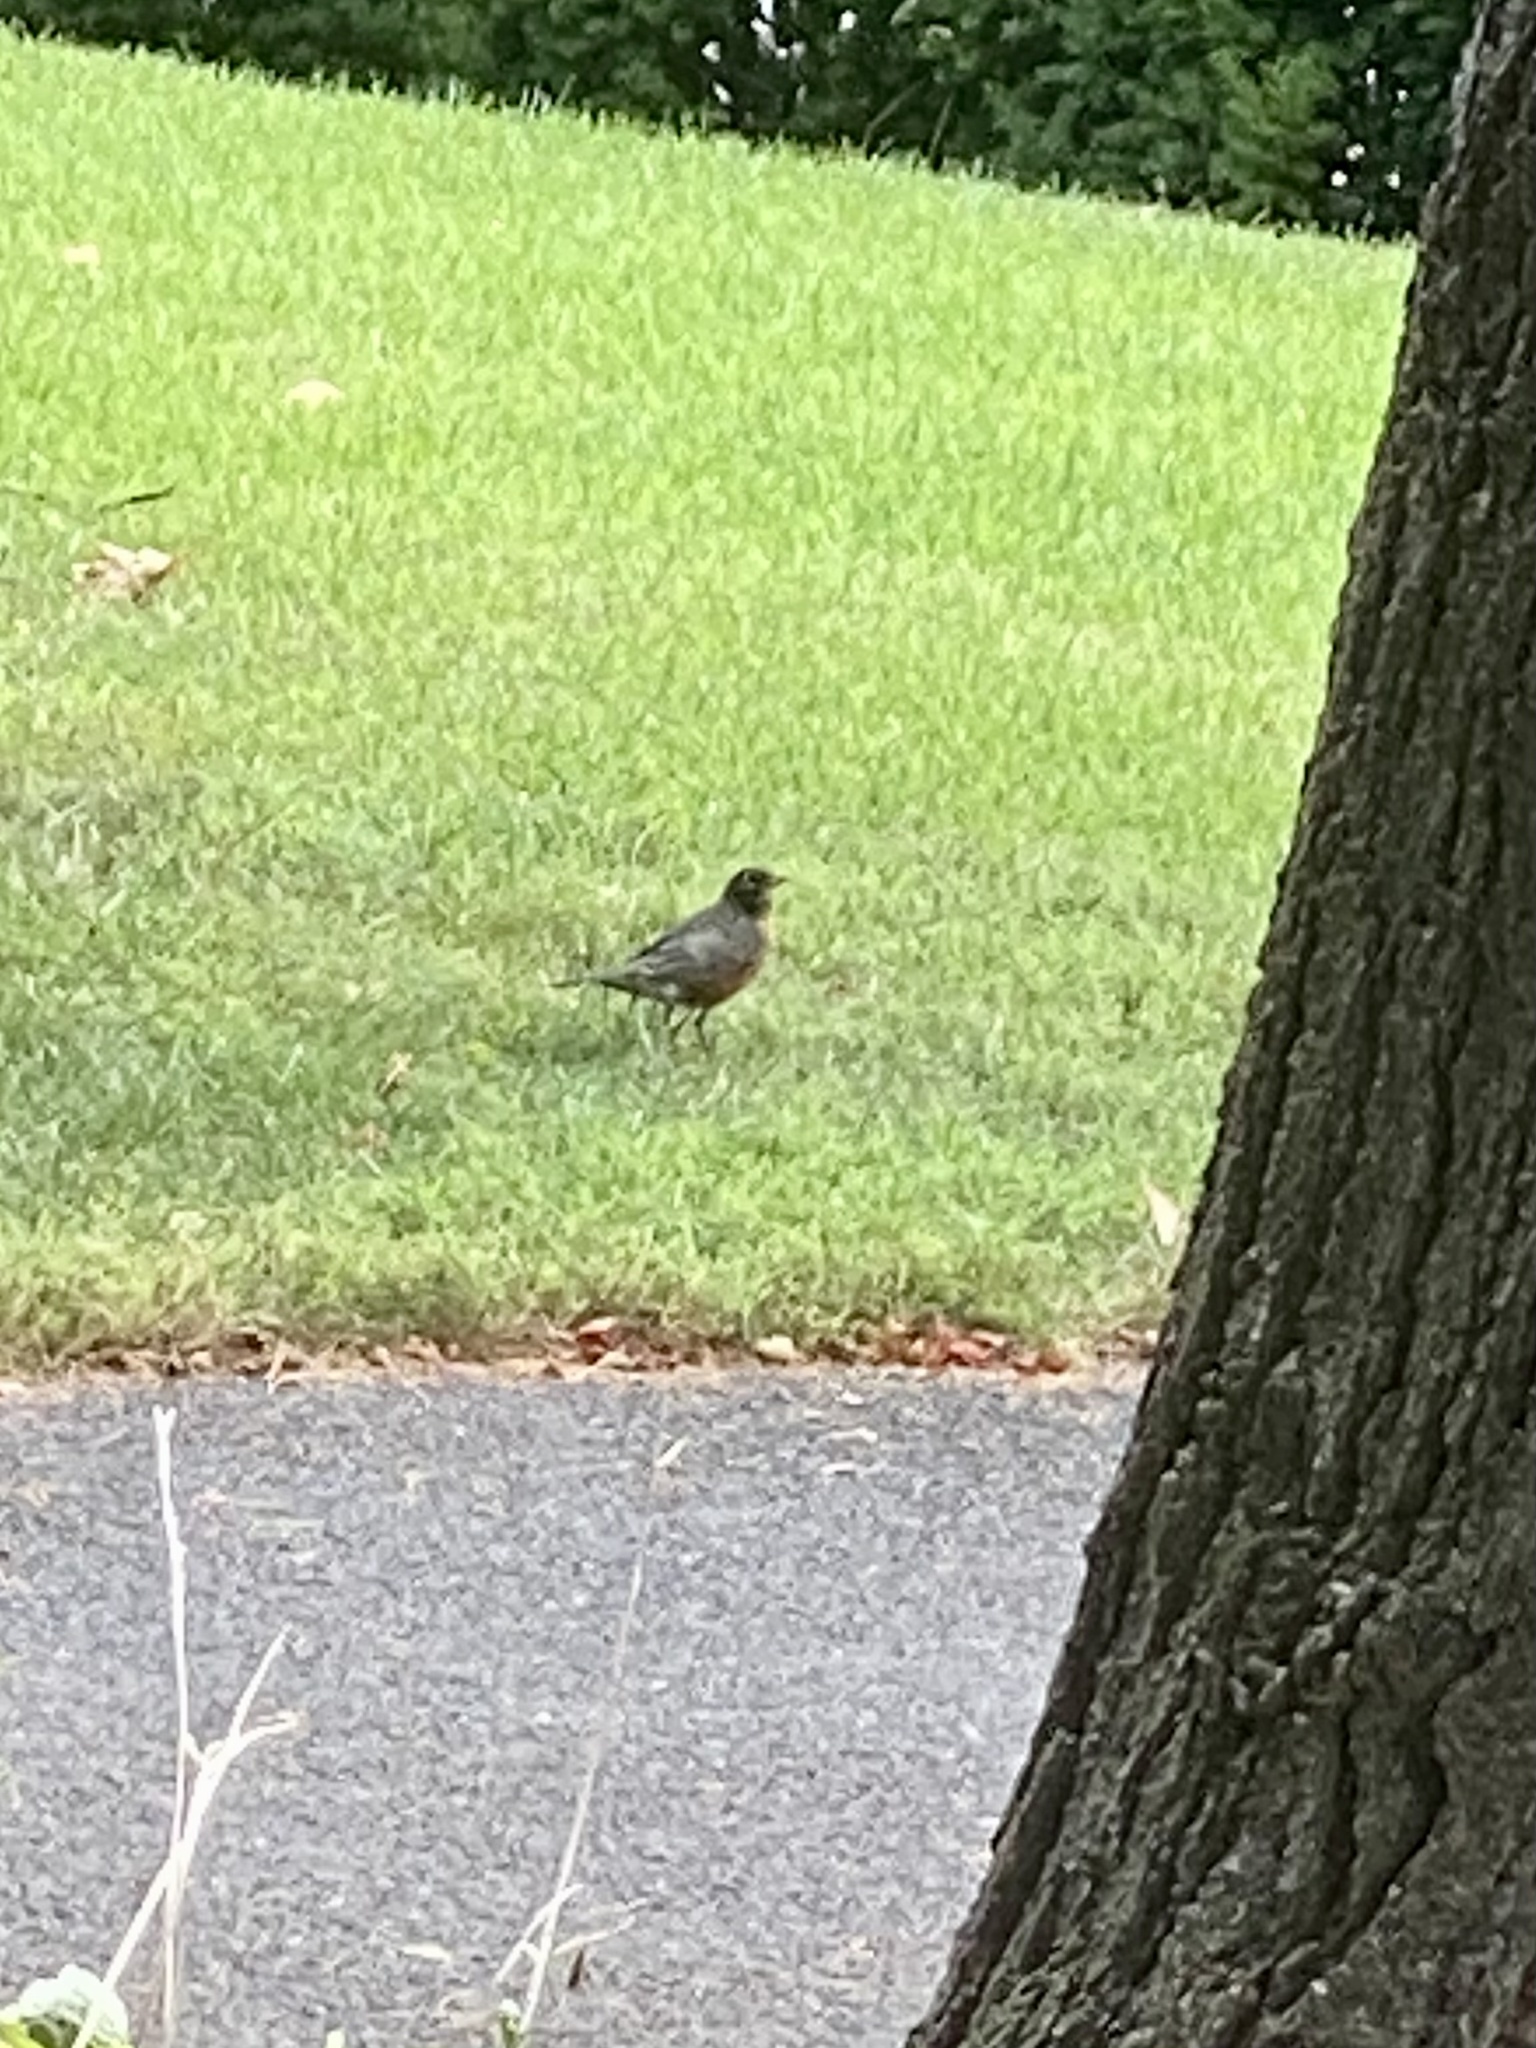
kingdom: Animalia
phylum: Chordata
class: Aves
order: Passeriformes
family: Turdidae
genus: Turdus
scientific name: Turdus migratorius
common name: American robin
